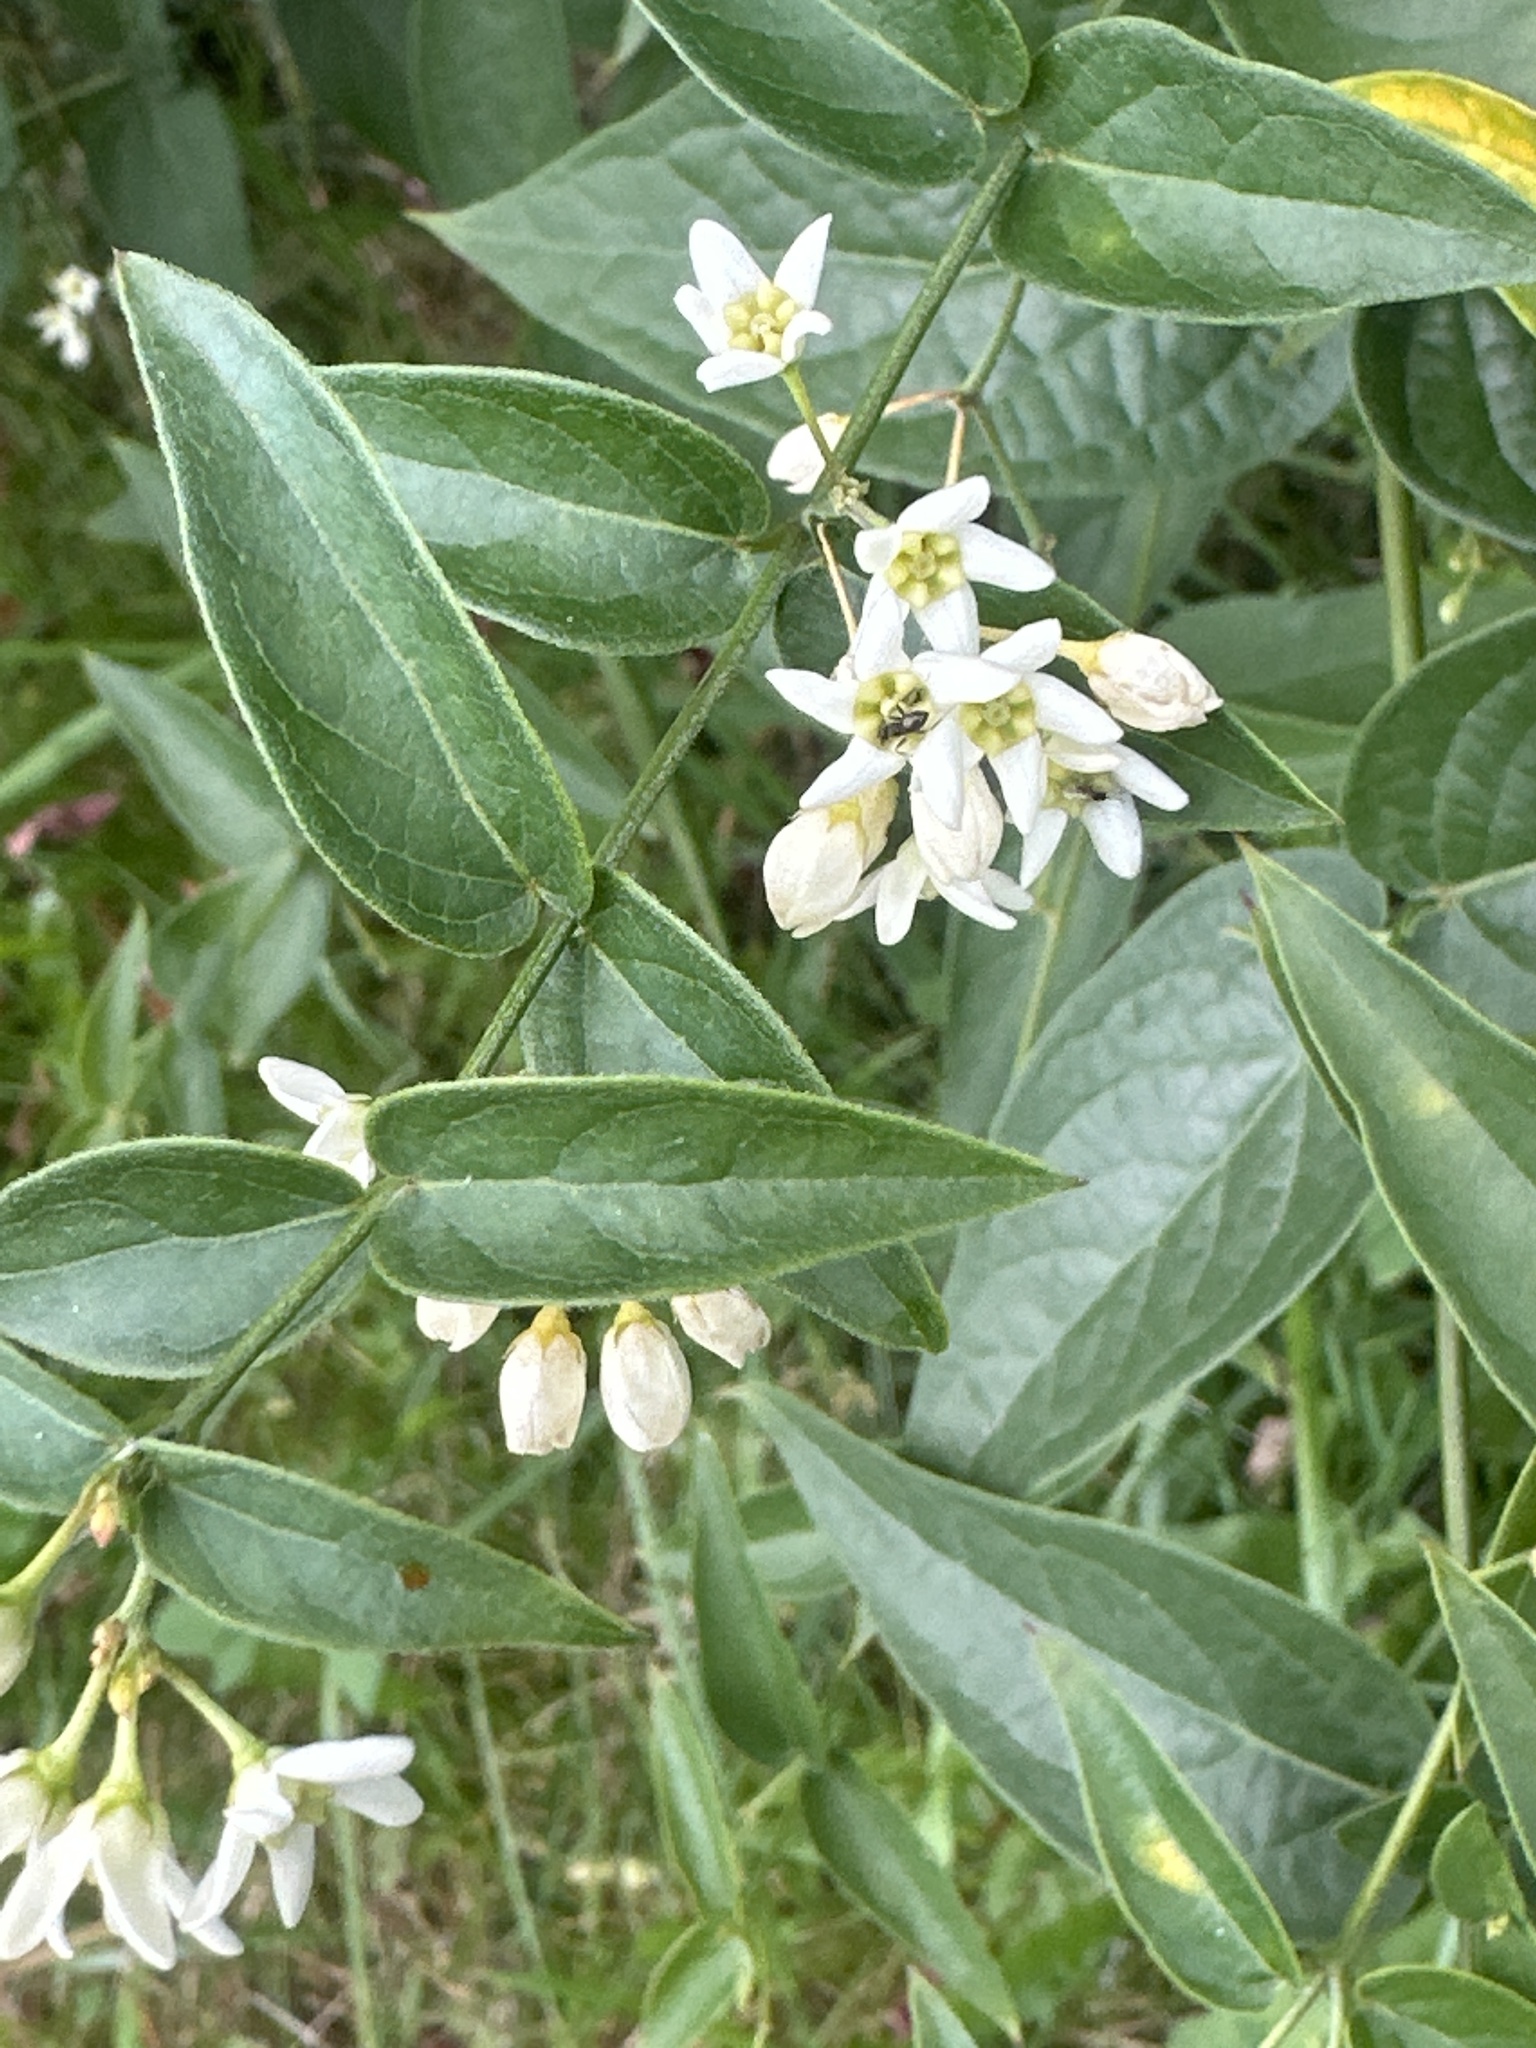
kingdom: Plantae
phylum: Tracheophyta
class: Magnoliopsida
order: Gentianales
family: Apocynaceae
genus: Vincetoxicum
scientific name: Vincetoxicum hirundinaria
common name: White swallowwort
